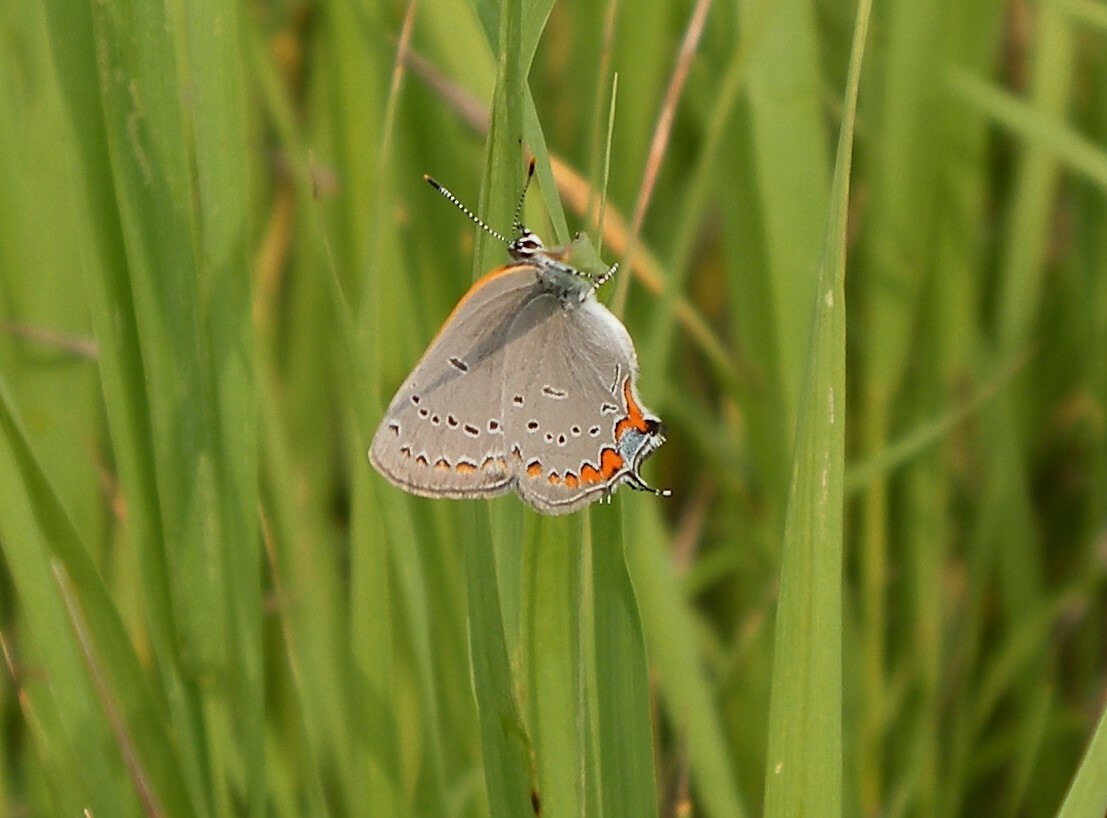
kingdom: Animalia
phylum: Arthropoda
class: Insecta
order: Lepidoptera
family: Lycaenidae
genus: Strymon
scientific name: Strymon acadica
